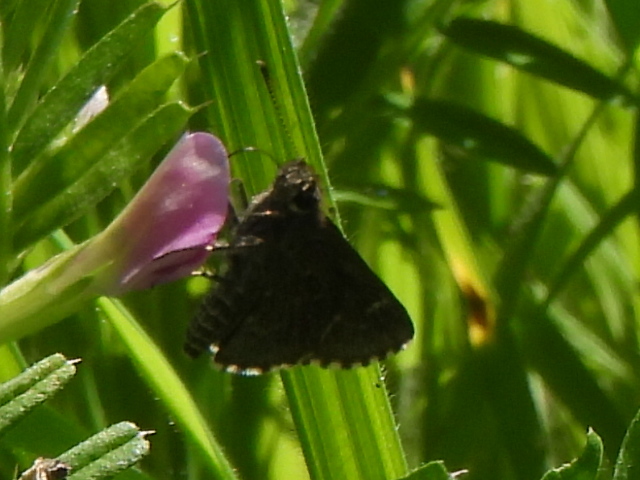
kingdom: Animalia
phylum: Arthropoda
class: Insecta
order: Lepidoptera
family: Hesperiidae
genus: Mastor
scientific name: Mastor celia
